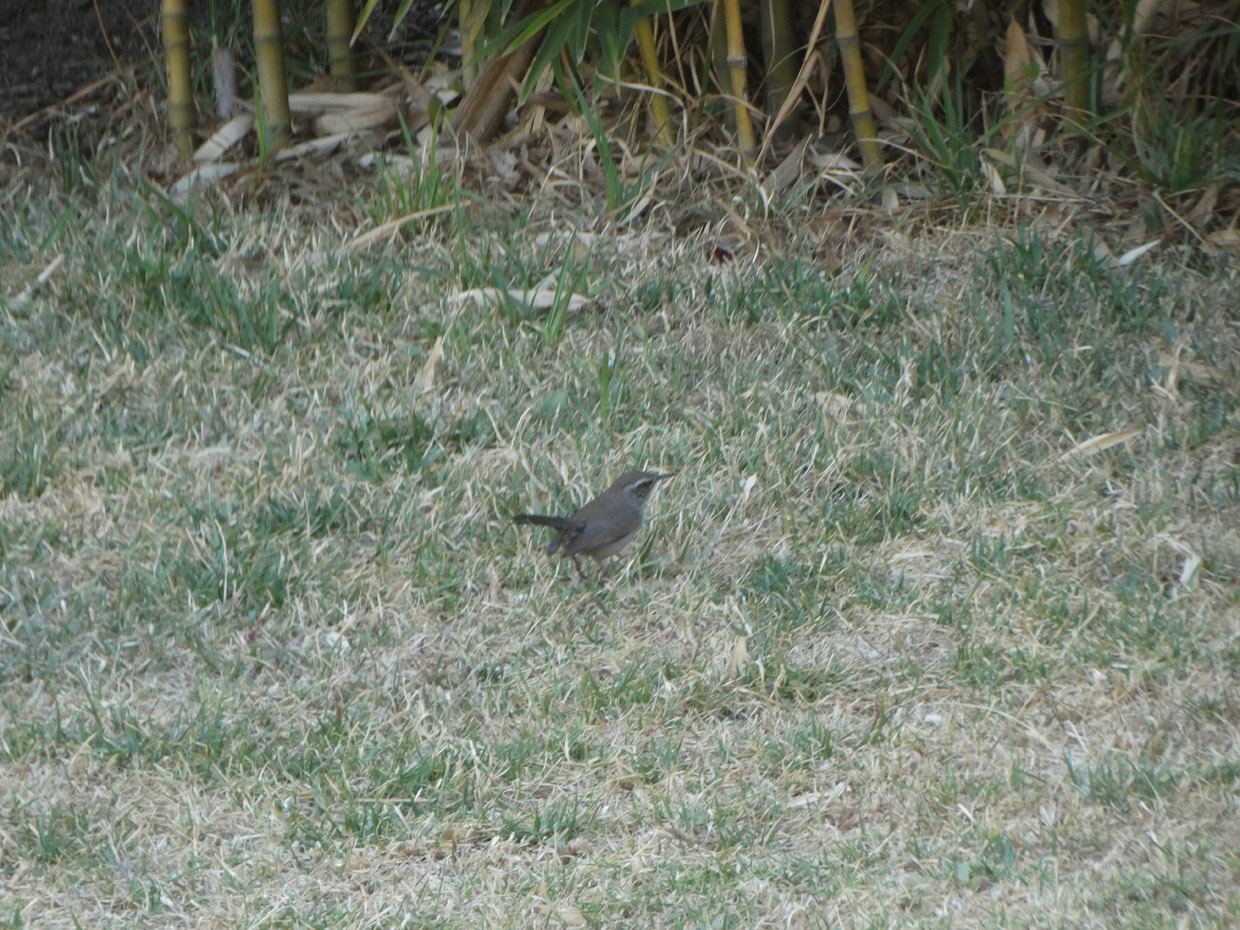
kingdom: Animalia
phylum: Chordata
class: Aves
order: Passeriformes
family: Troglodytidae
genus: Thryomanes
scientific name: Thryomanes bewickii
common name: Bewick's wren
